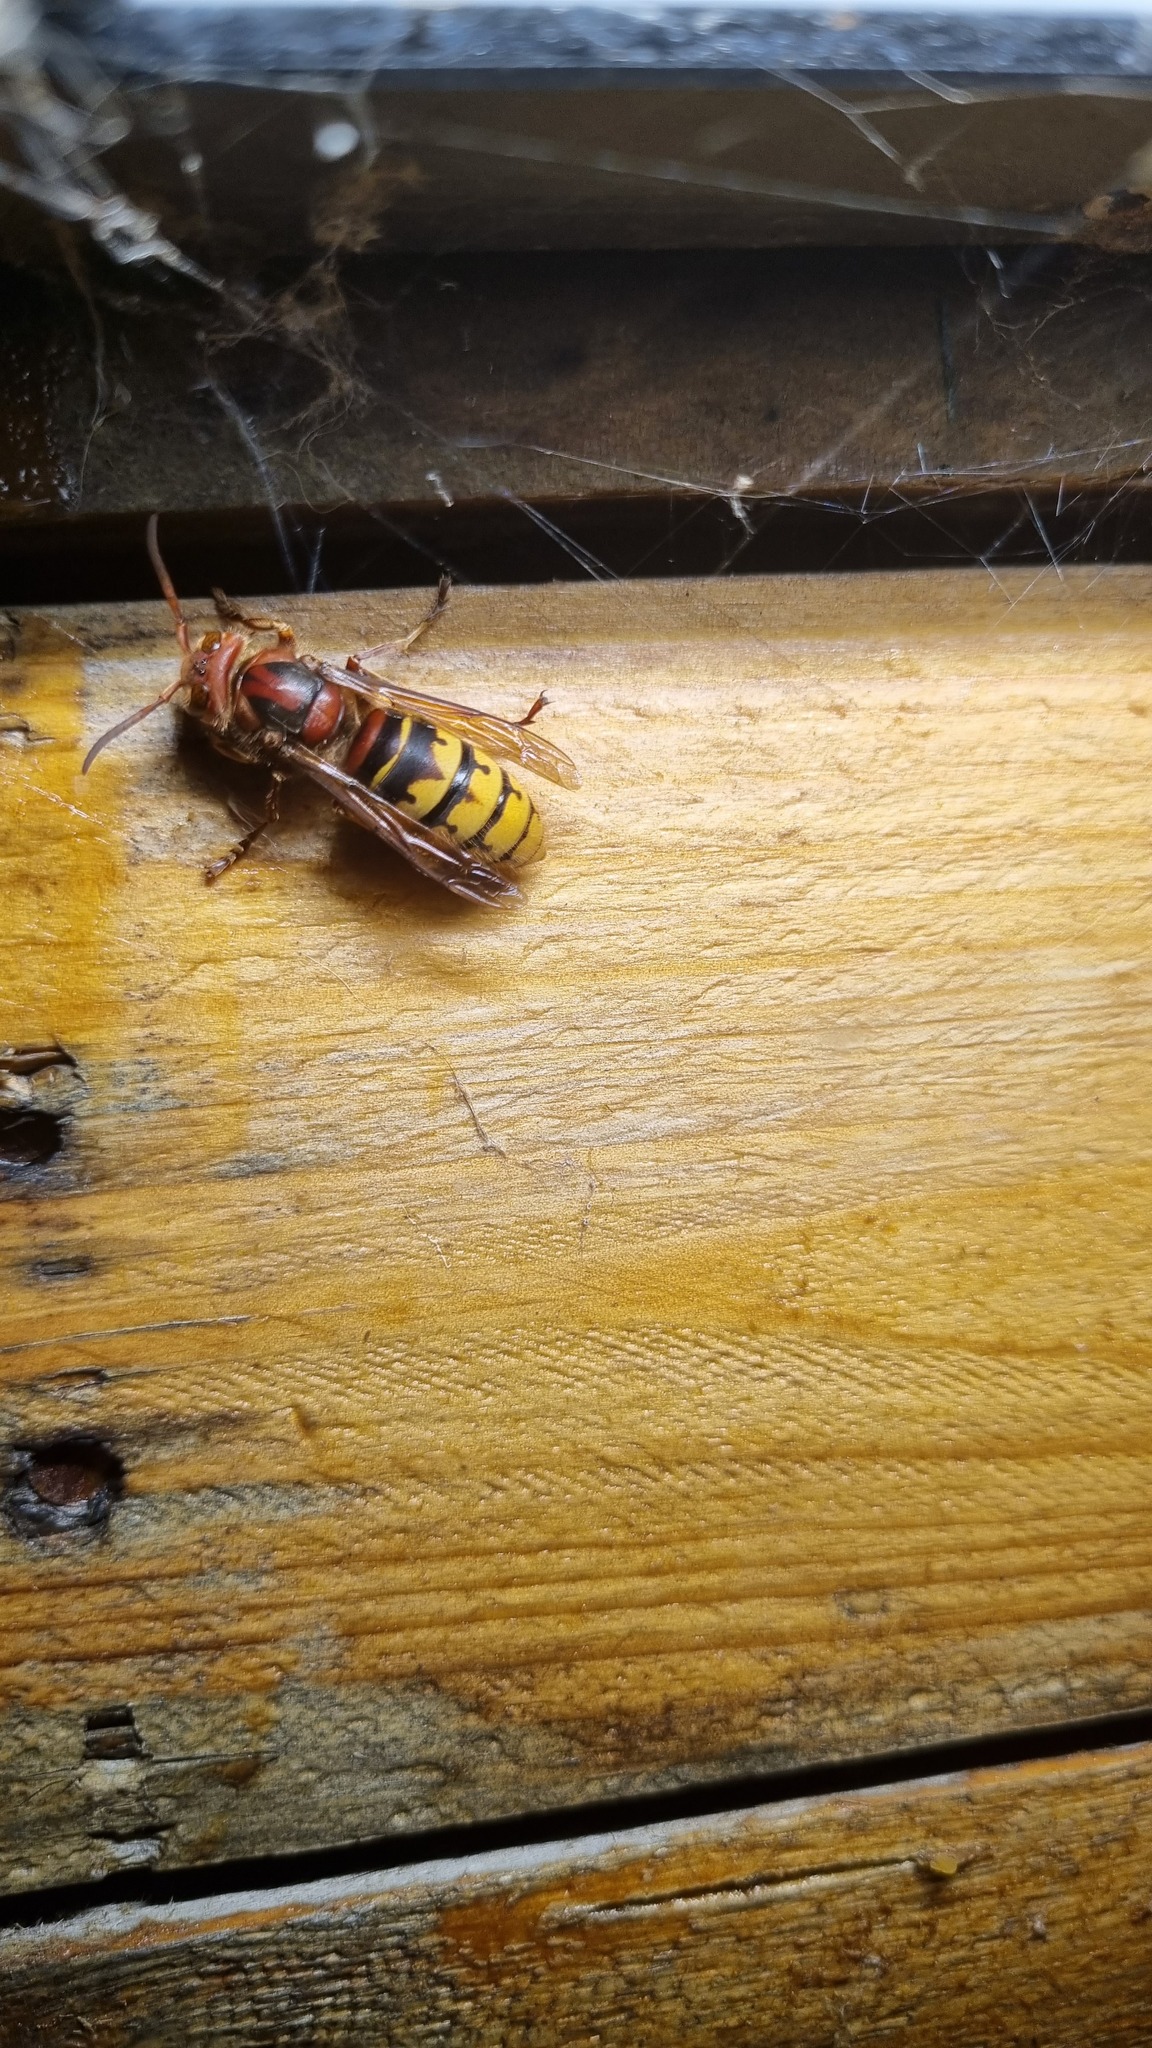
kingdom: Animalia
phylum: Arthropoda
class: Insecta
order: Hymenoptera
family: Vespidae
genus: Vespa
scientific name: Vespa crabro
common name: Hornet
